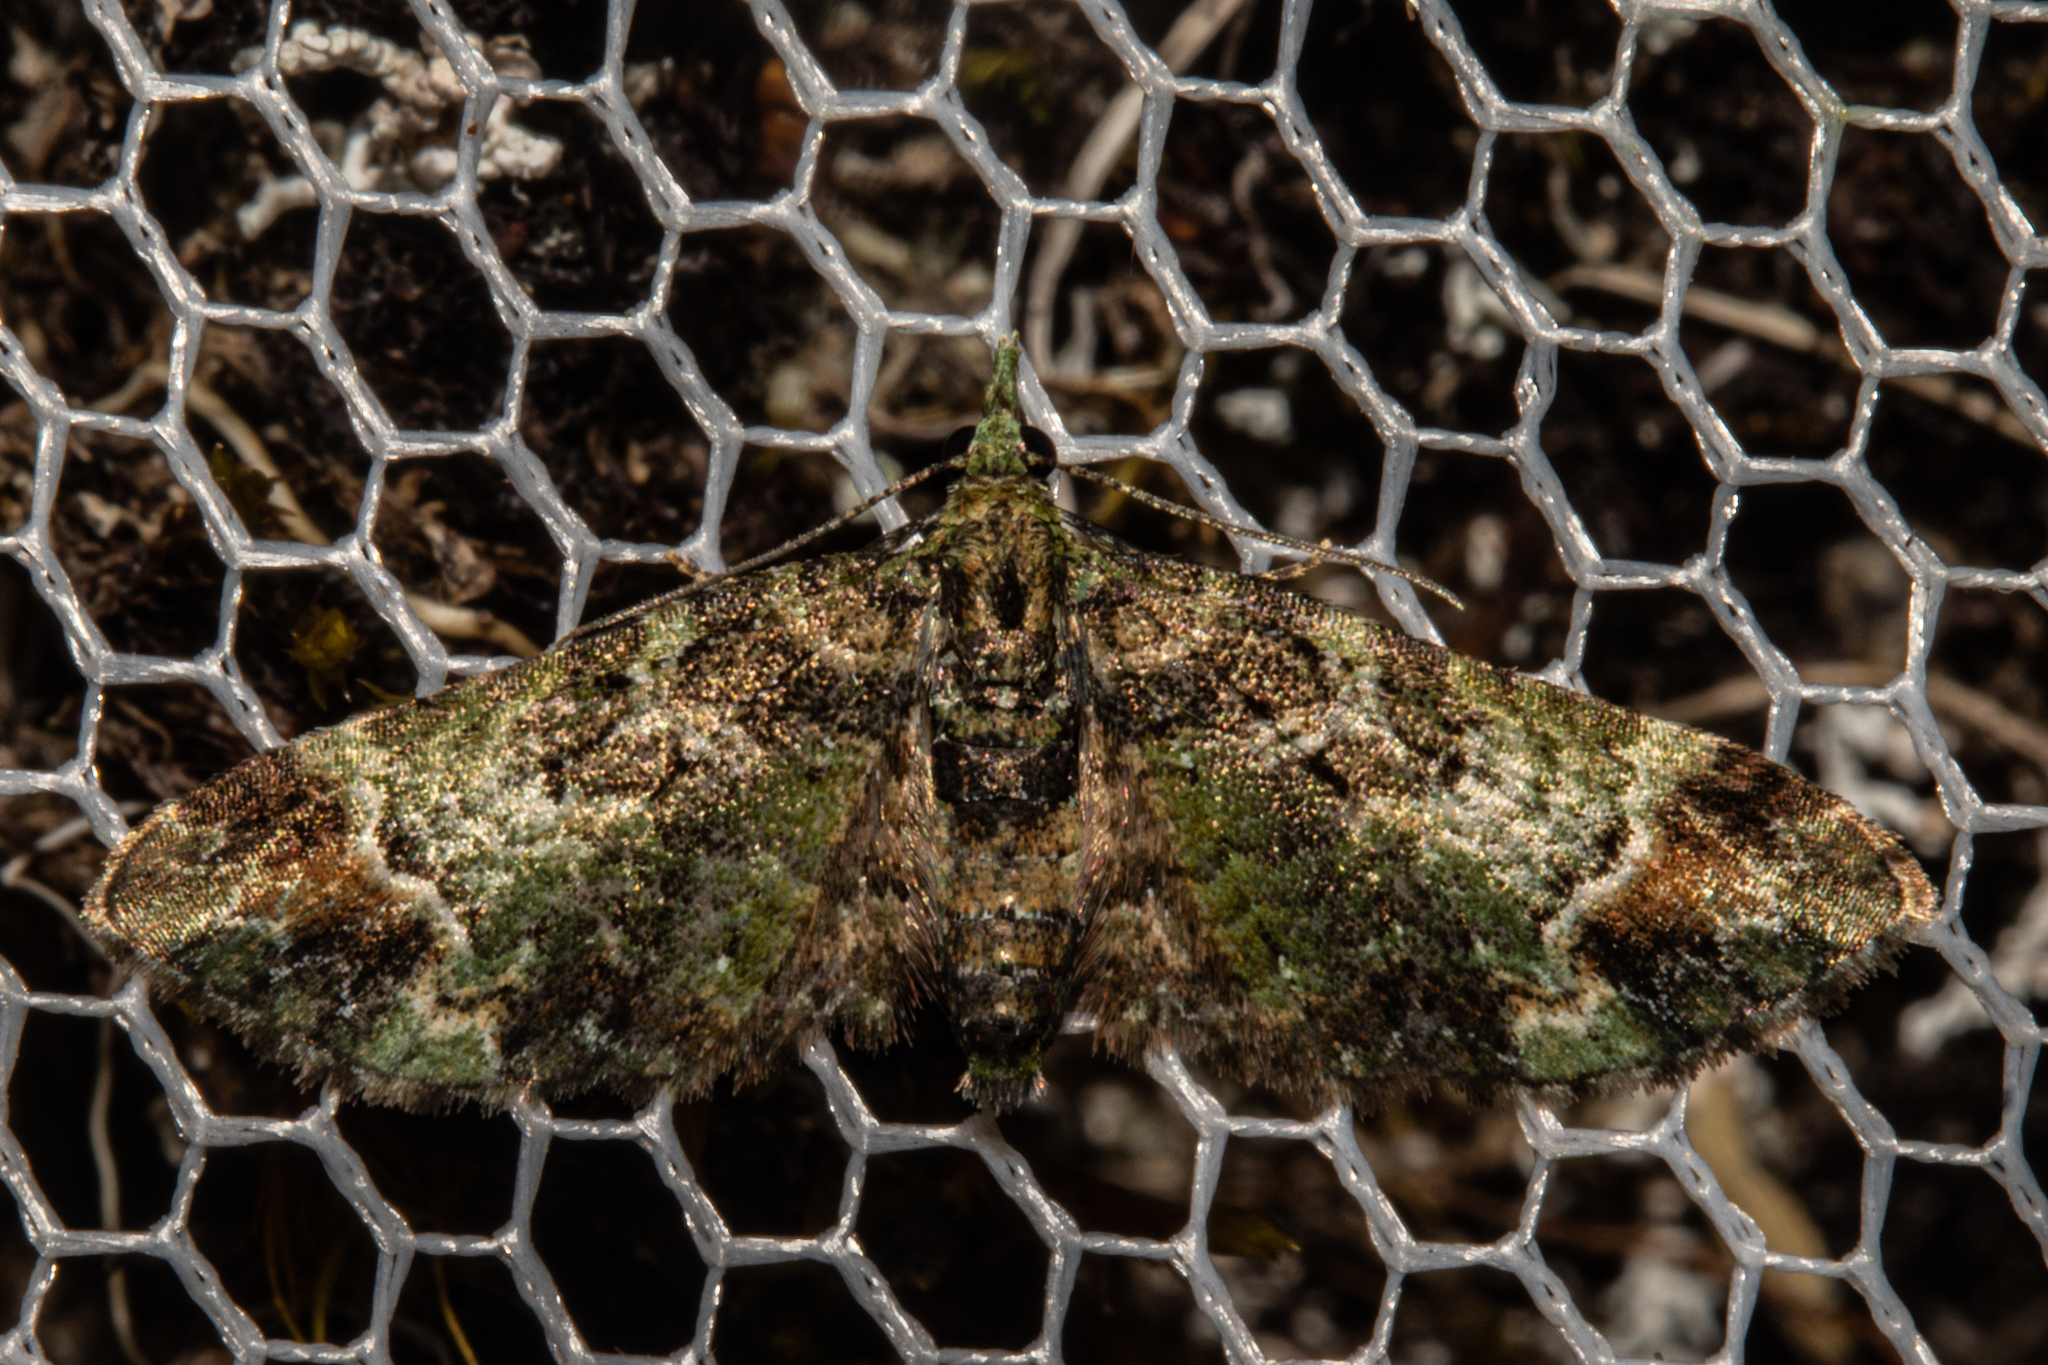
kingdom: Animalia
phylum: Arthropoda
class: Insecta
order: Lepidoptera
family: Geometridae
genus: Pasiphila
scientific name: Pasiphila sandycias
